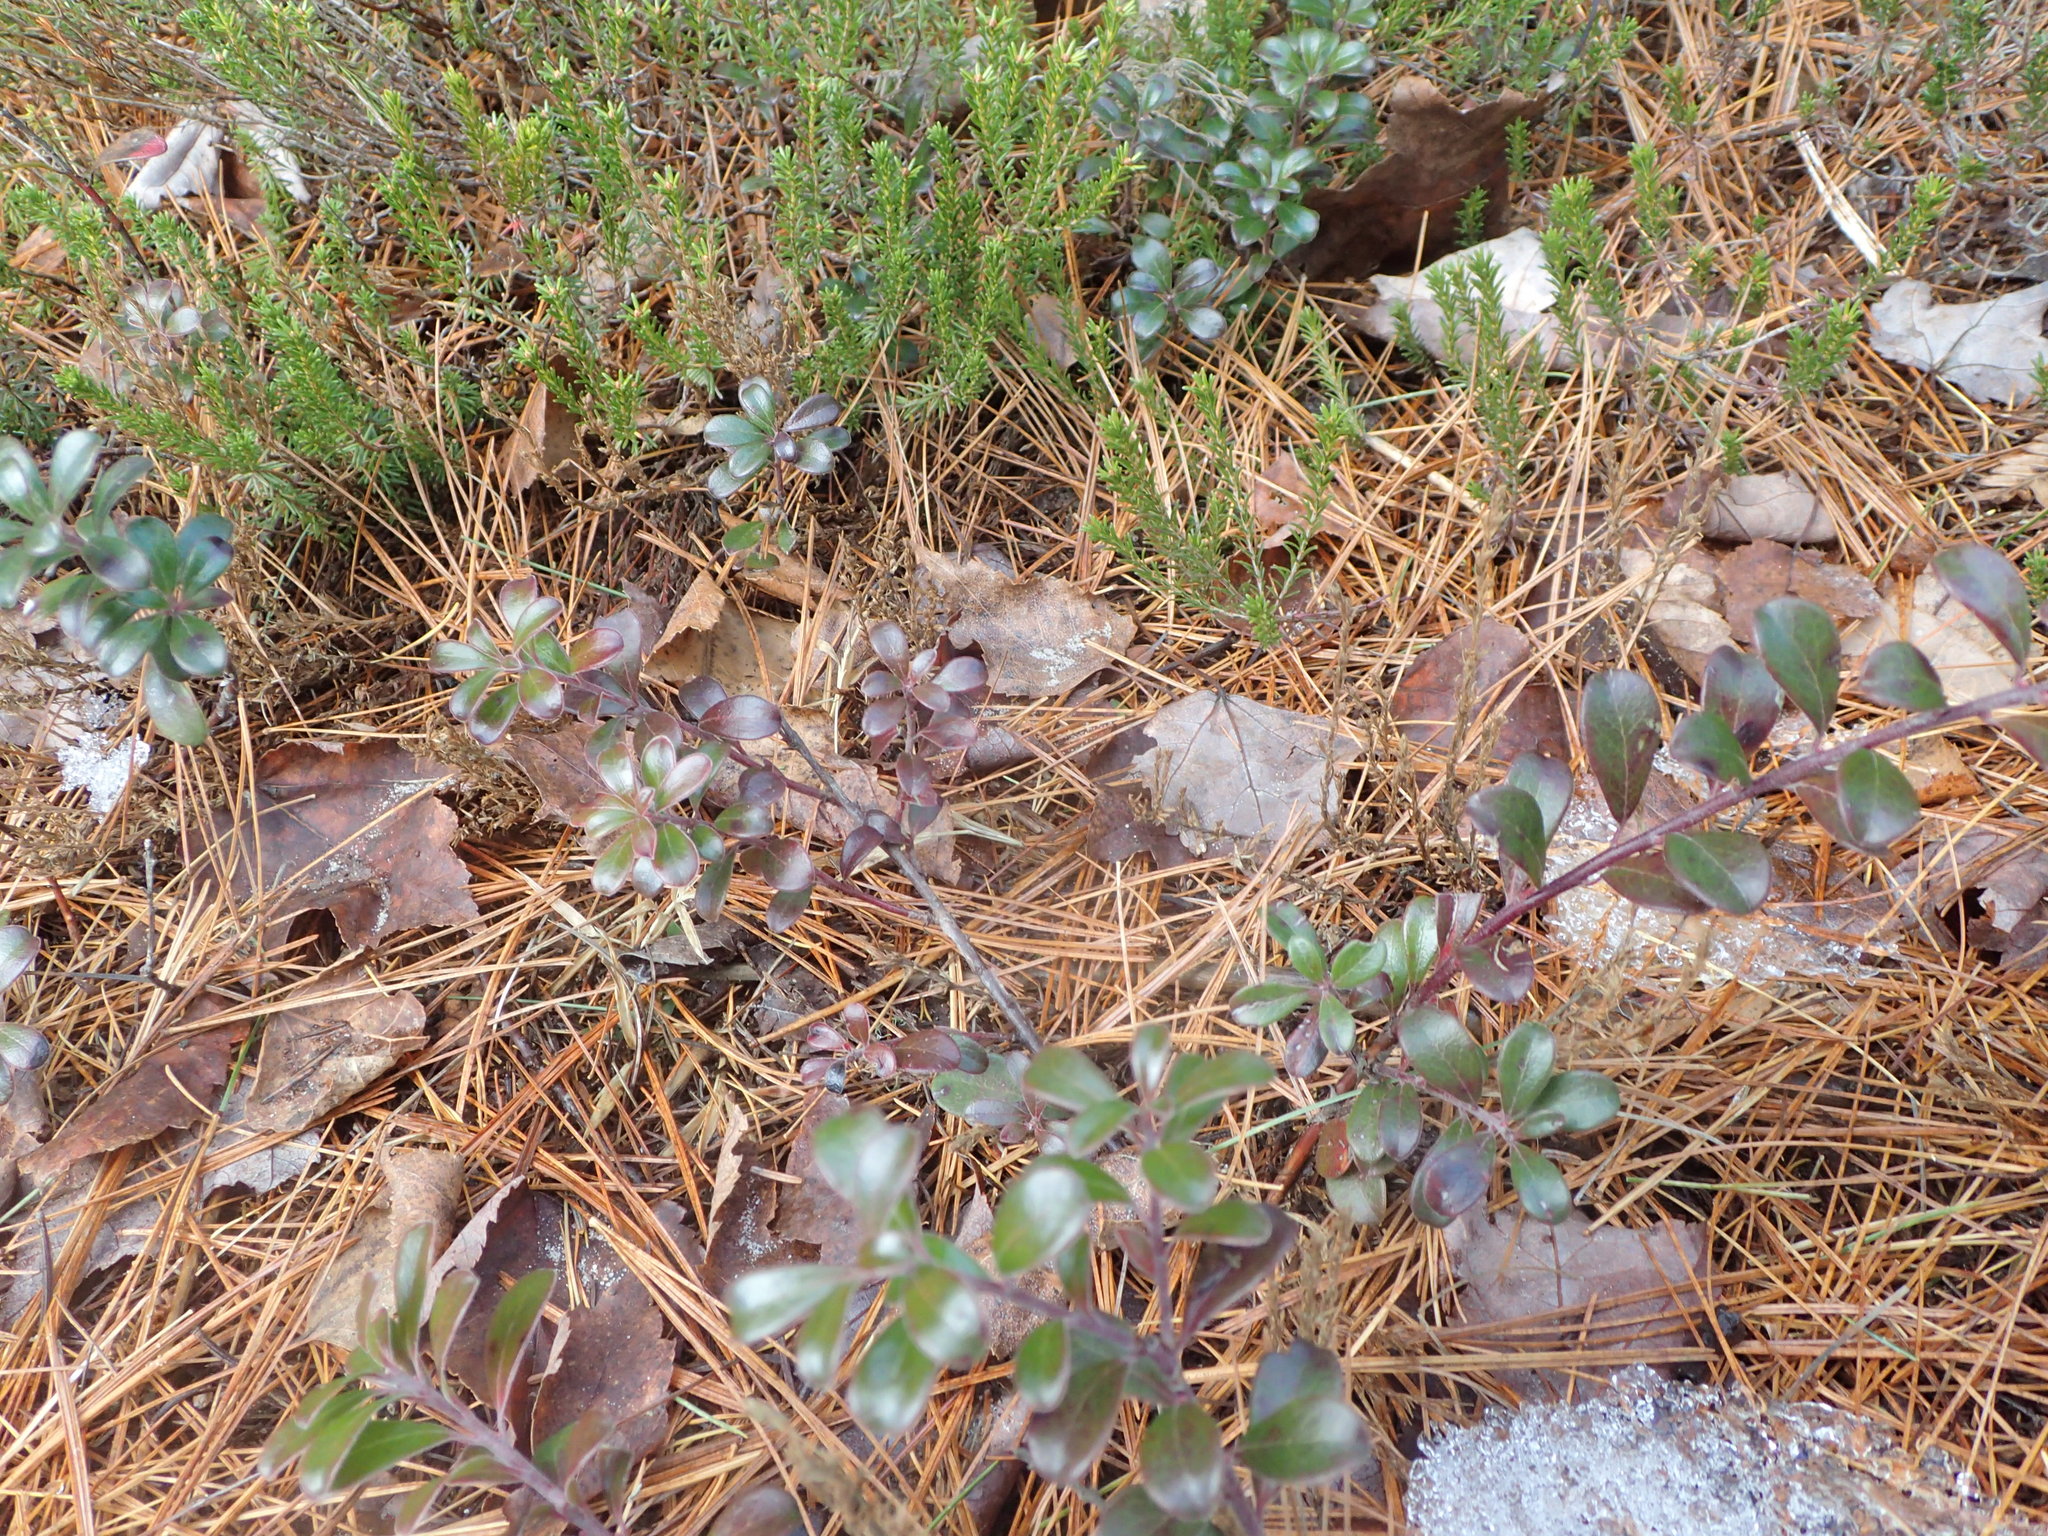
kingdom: Plantae
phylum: Tracheophyta
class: Magnoliopsida
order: Ericales
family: Ericaceae
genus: Arctostaphylos
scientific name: Arctostaphylos uva-ursi
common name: Bearberry
